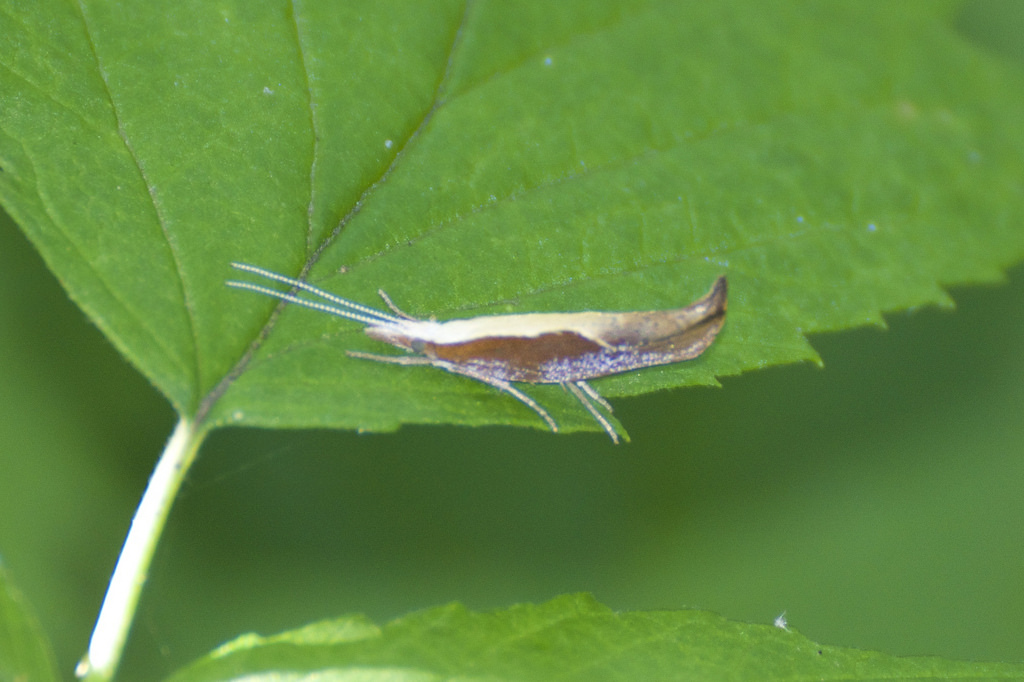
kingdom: Animalia
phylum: Arthropoda
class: Insecta
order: Lepidoptera
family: Ypsolophidae
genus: Ypsolopha
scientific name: Ypsolopha dentella
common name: Honeysuckle moth
